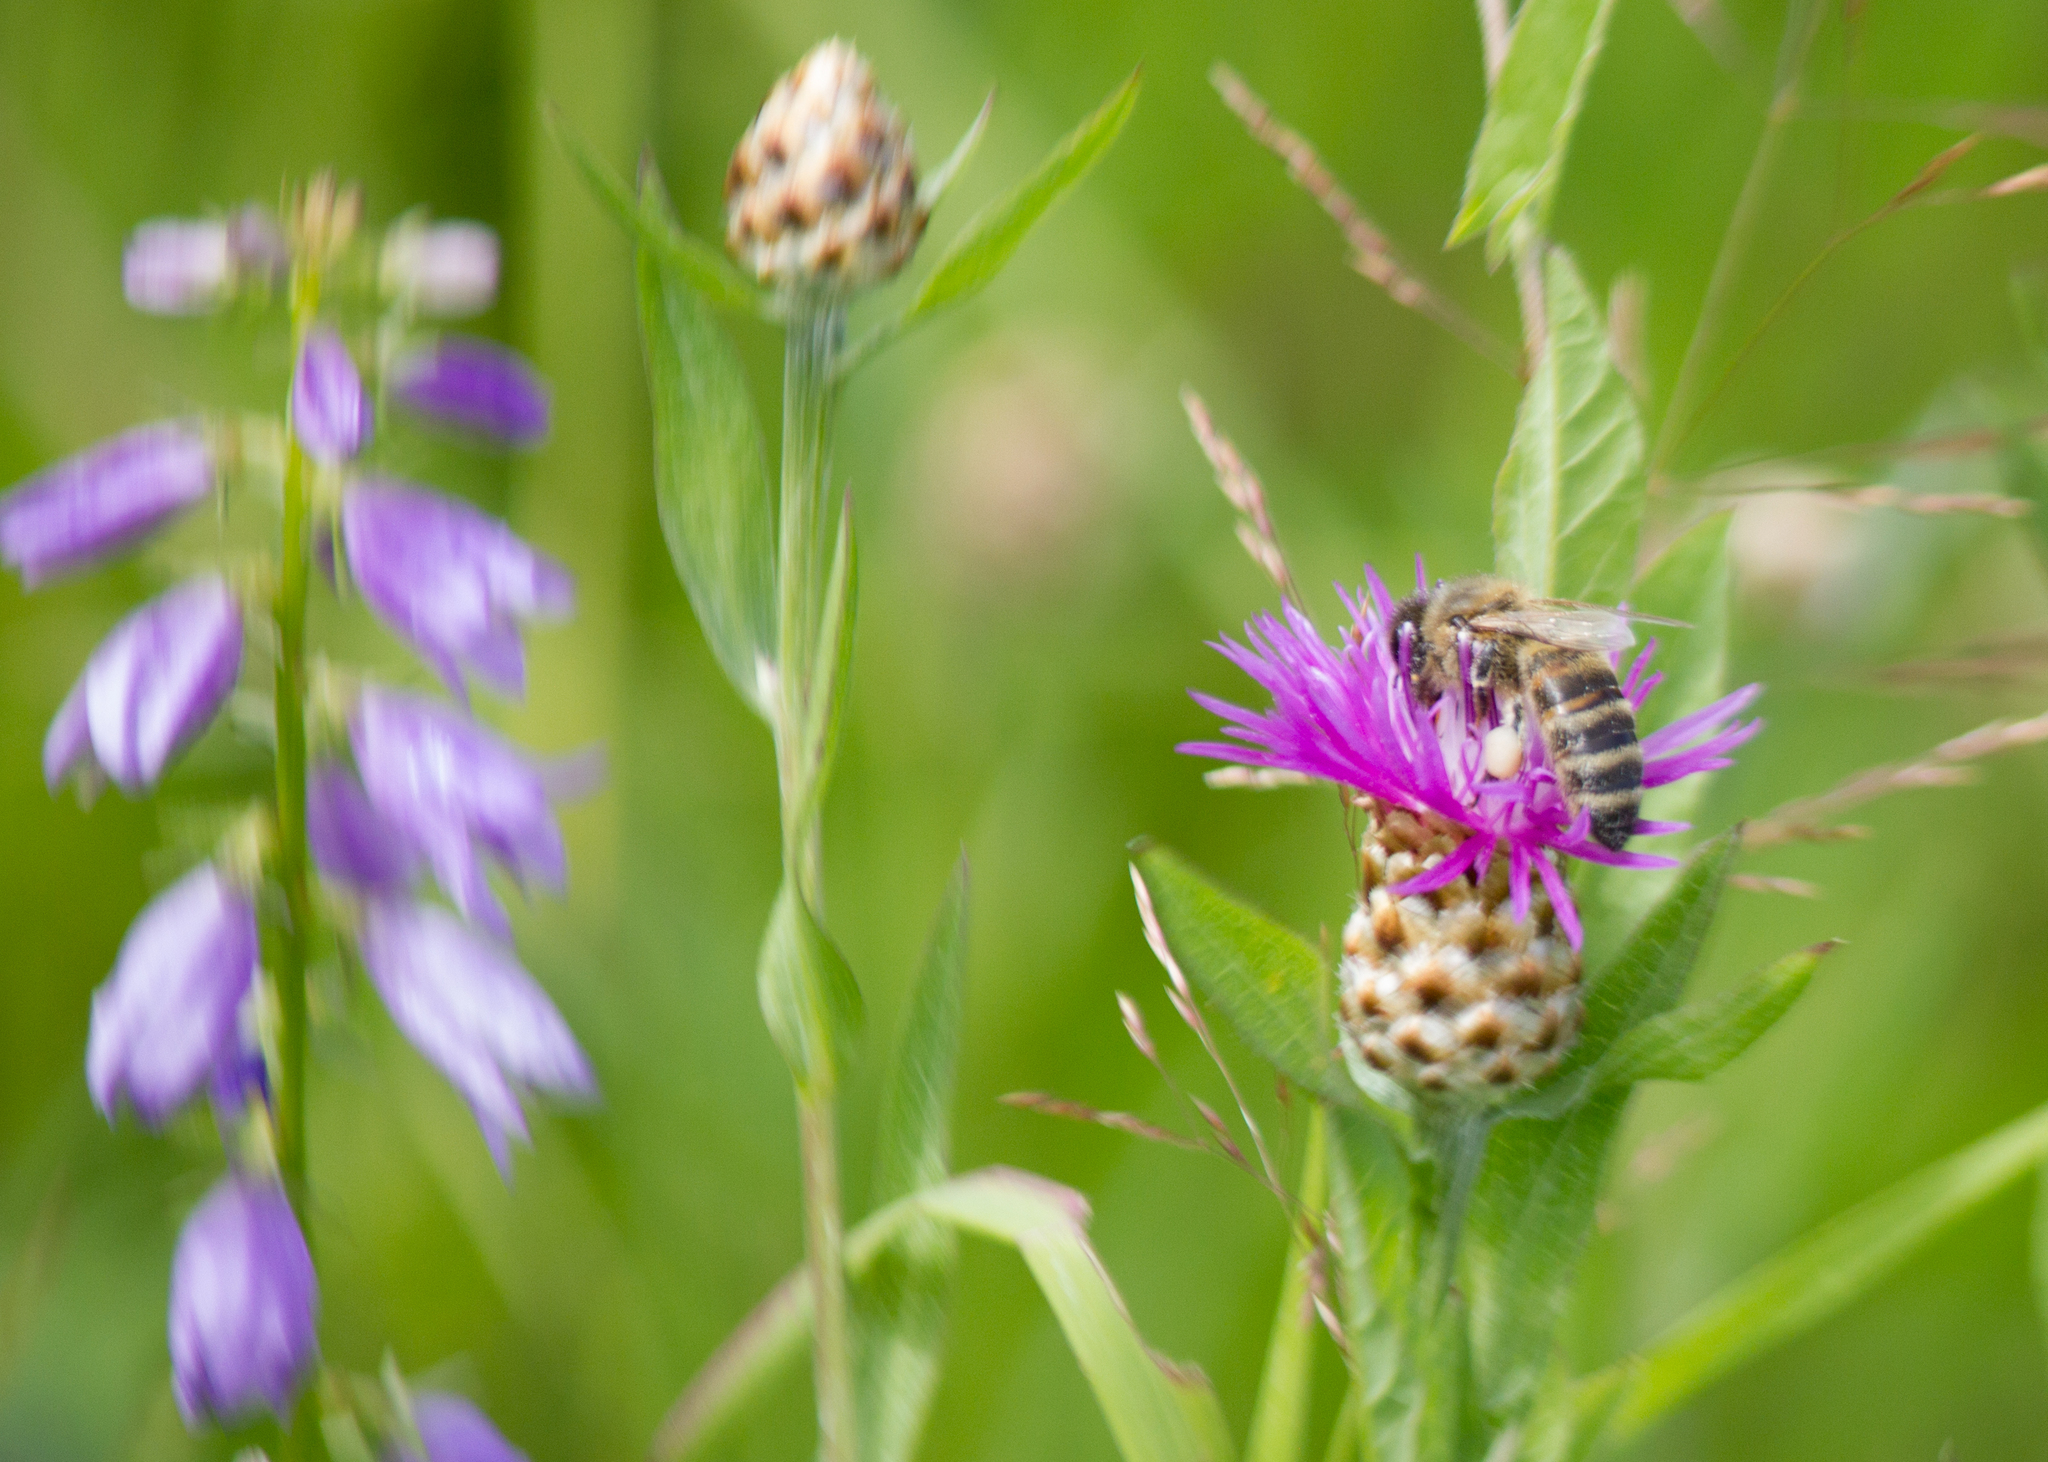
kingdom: Animalia
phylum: Arthropoda
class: Insecta
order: Hymenoptera
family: Apidae
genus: Apis
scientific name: Apis mellifera
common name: Honey bee
